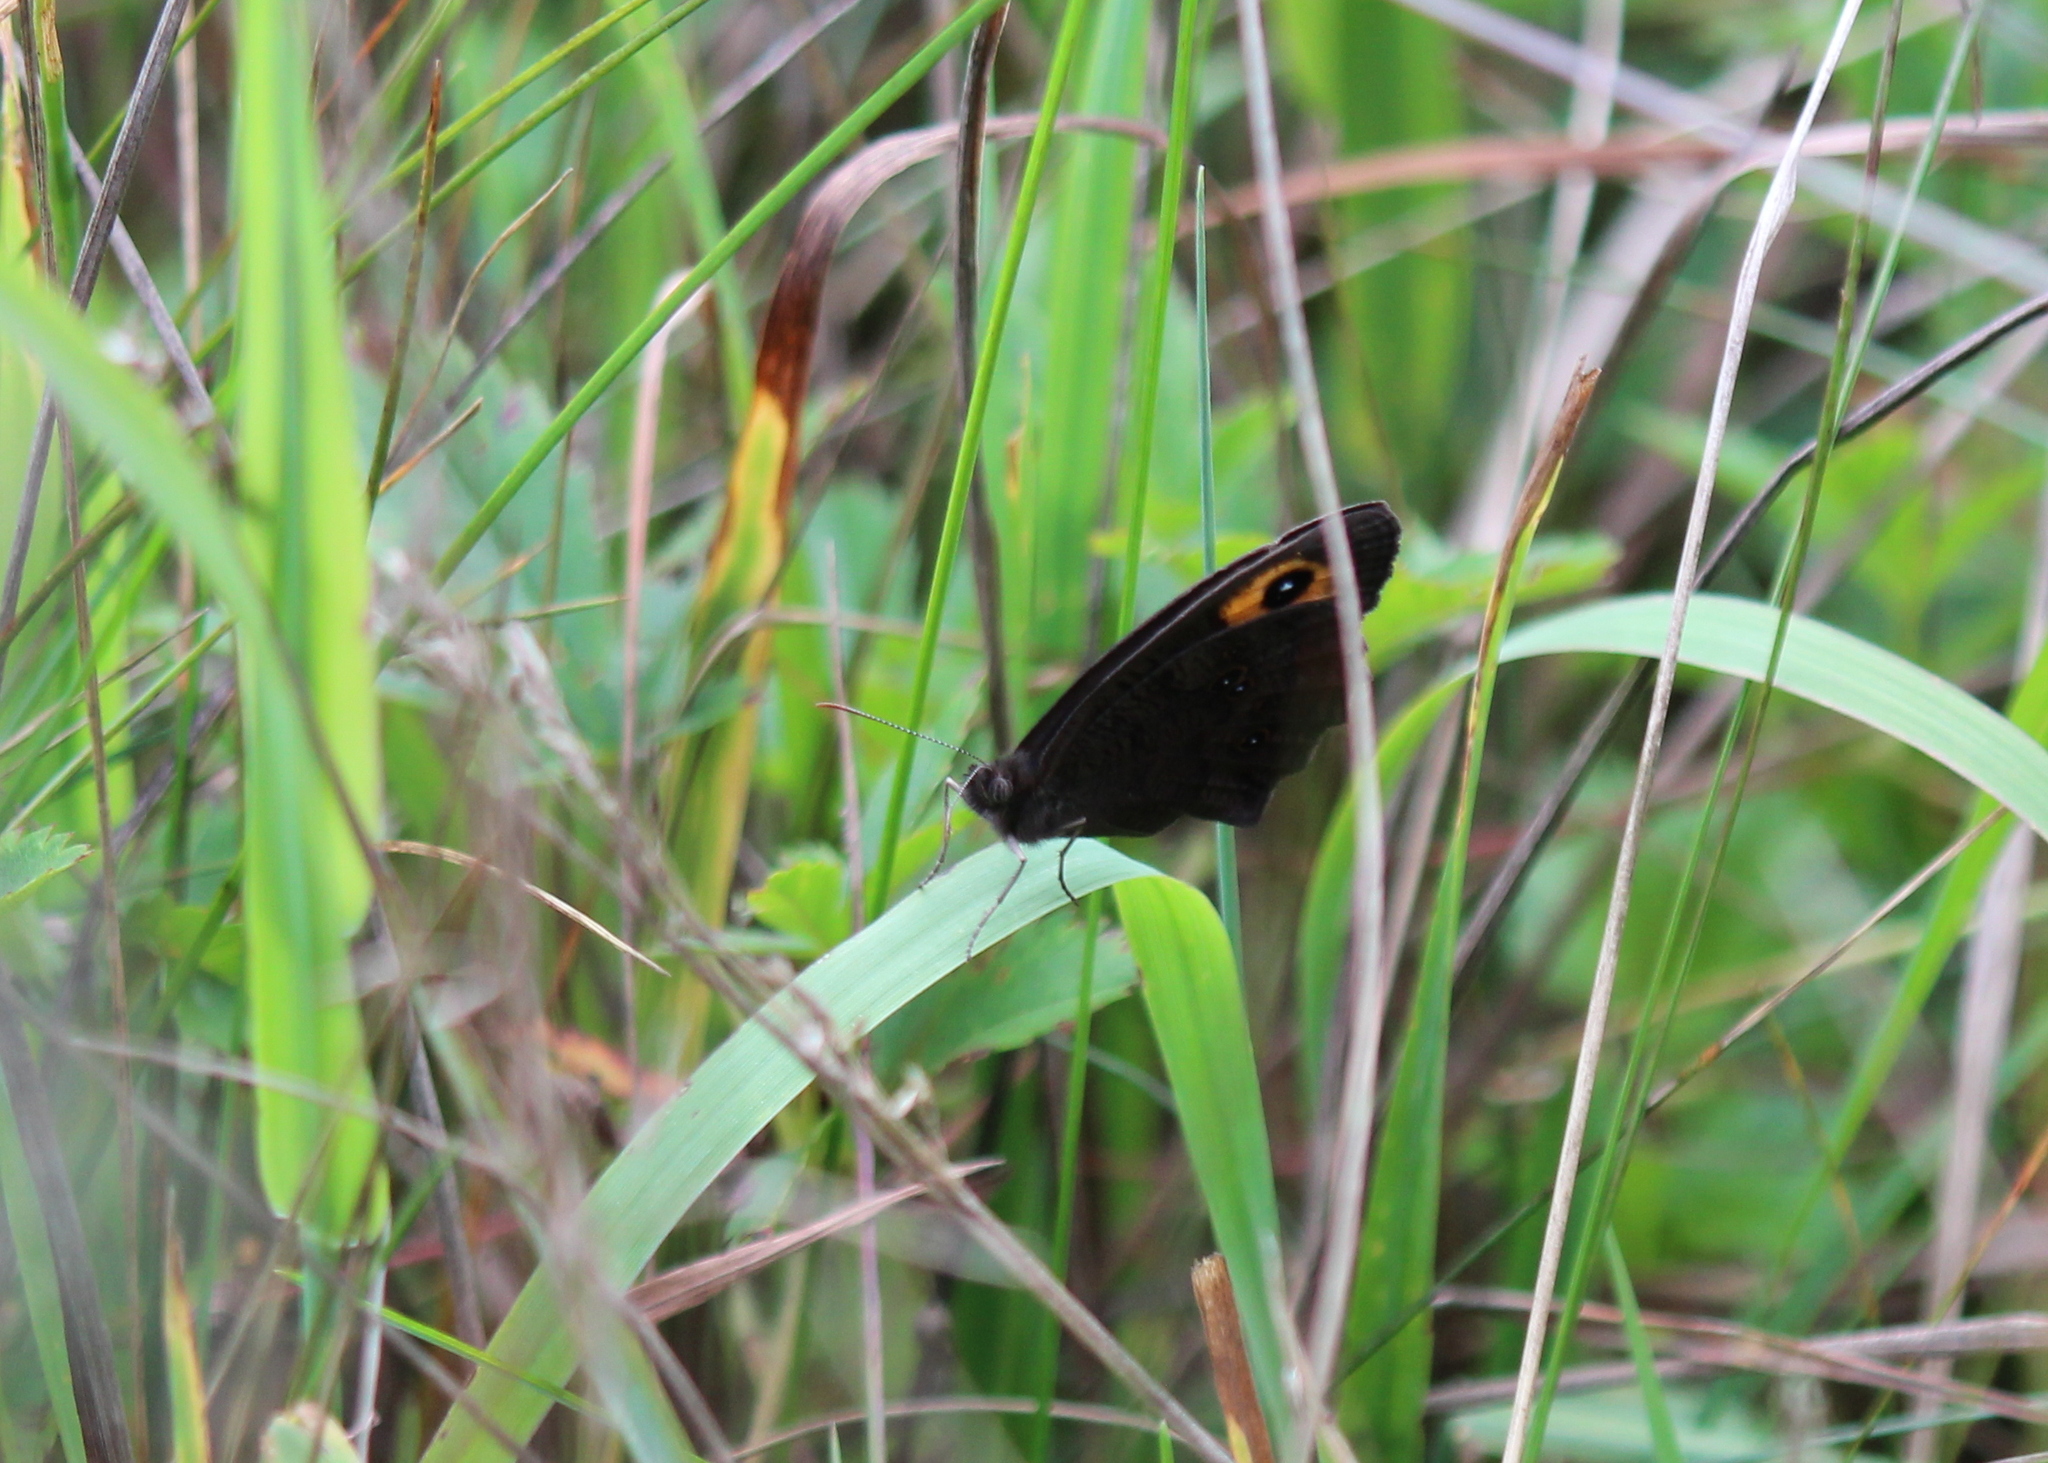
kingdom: Animalia
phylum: Arthropoda
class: Insecta
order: Lepidoptera
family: Nymphalidae
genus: Cercyonis
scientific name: Cercyonis pegala
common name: Common wood-nymph
